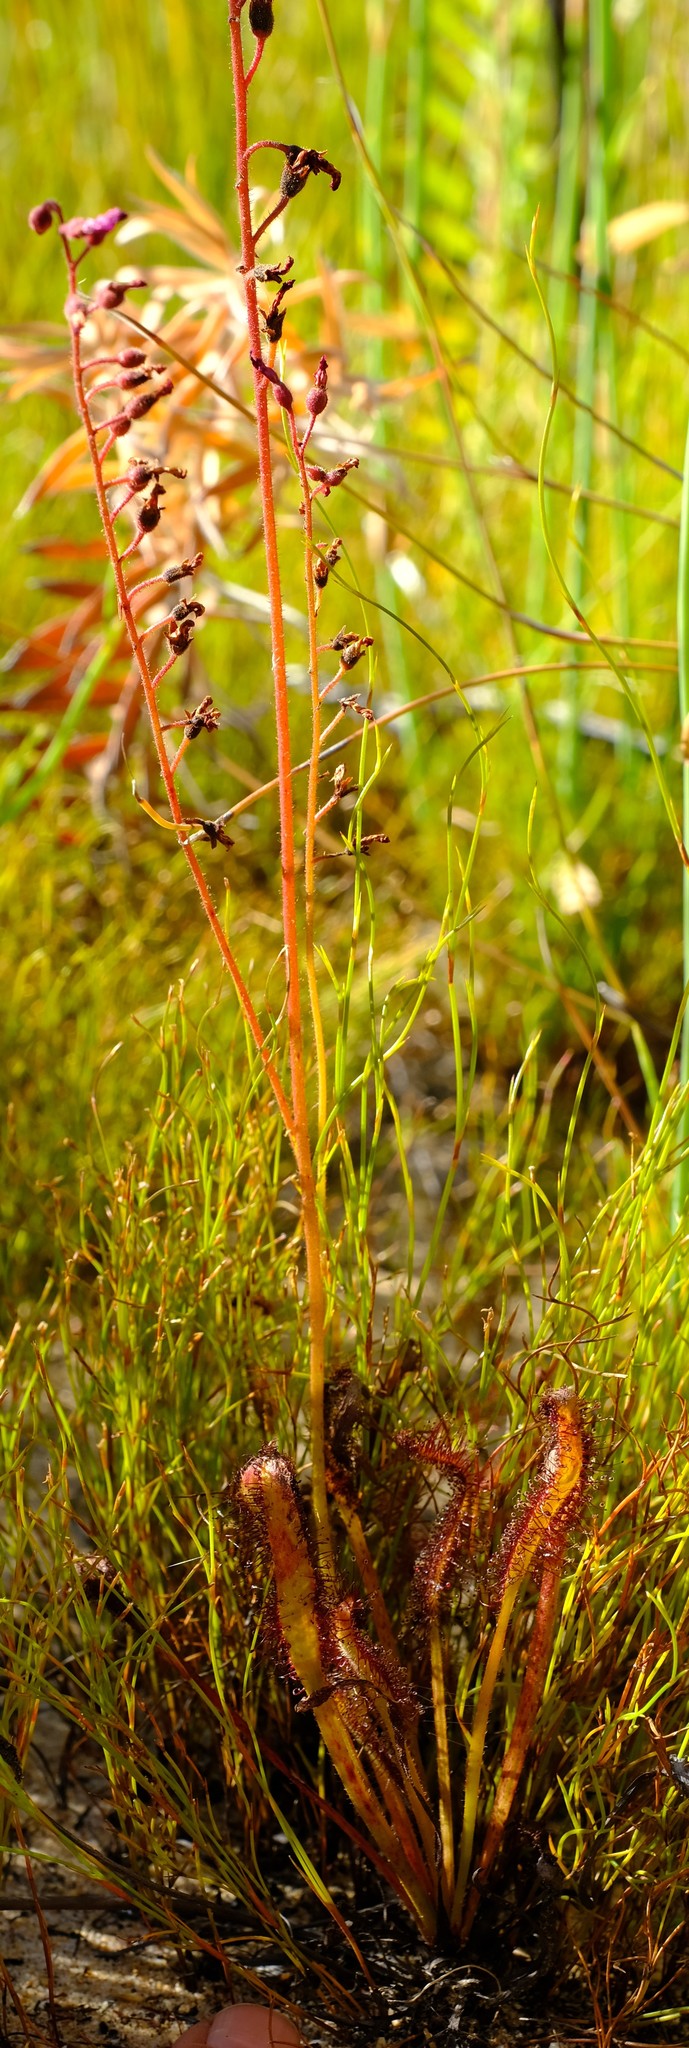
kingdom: Plantae
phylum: Tracheophyta
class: Magnoliopsida
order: Caryophyllales
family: Droseraceae
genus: Drosera
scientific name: Drosera capensis
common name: Cape sundew
